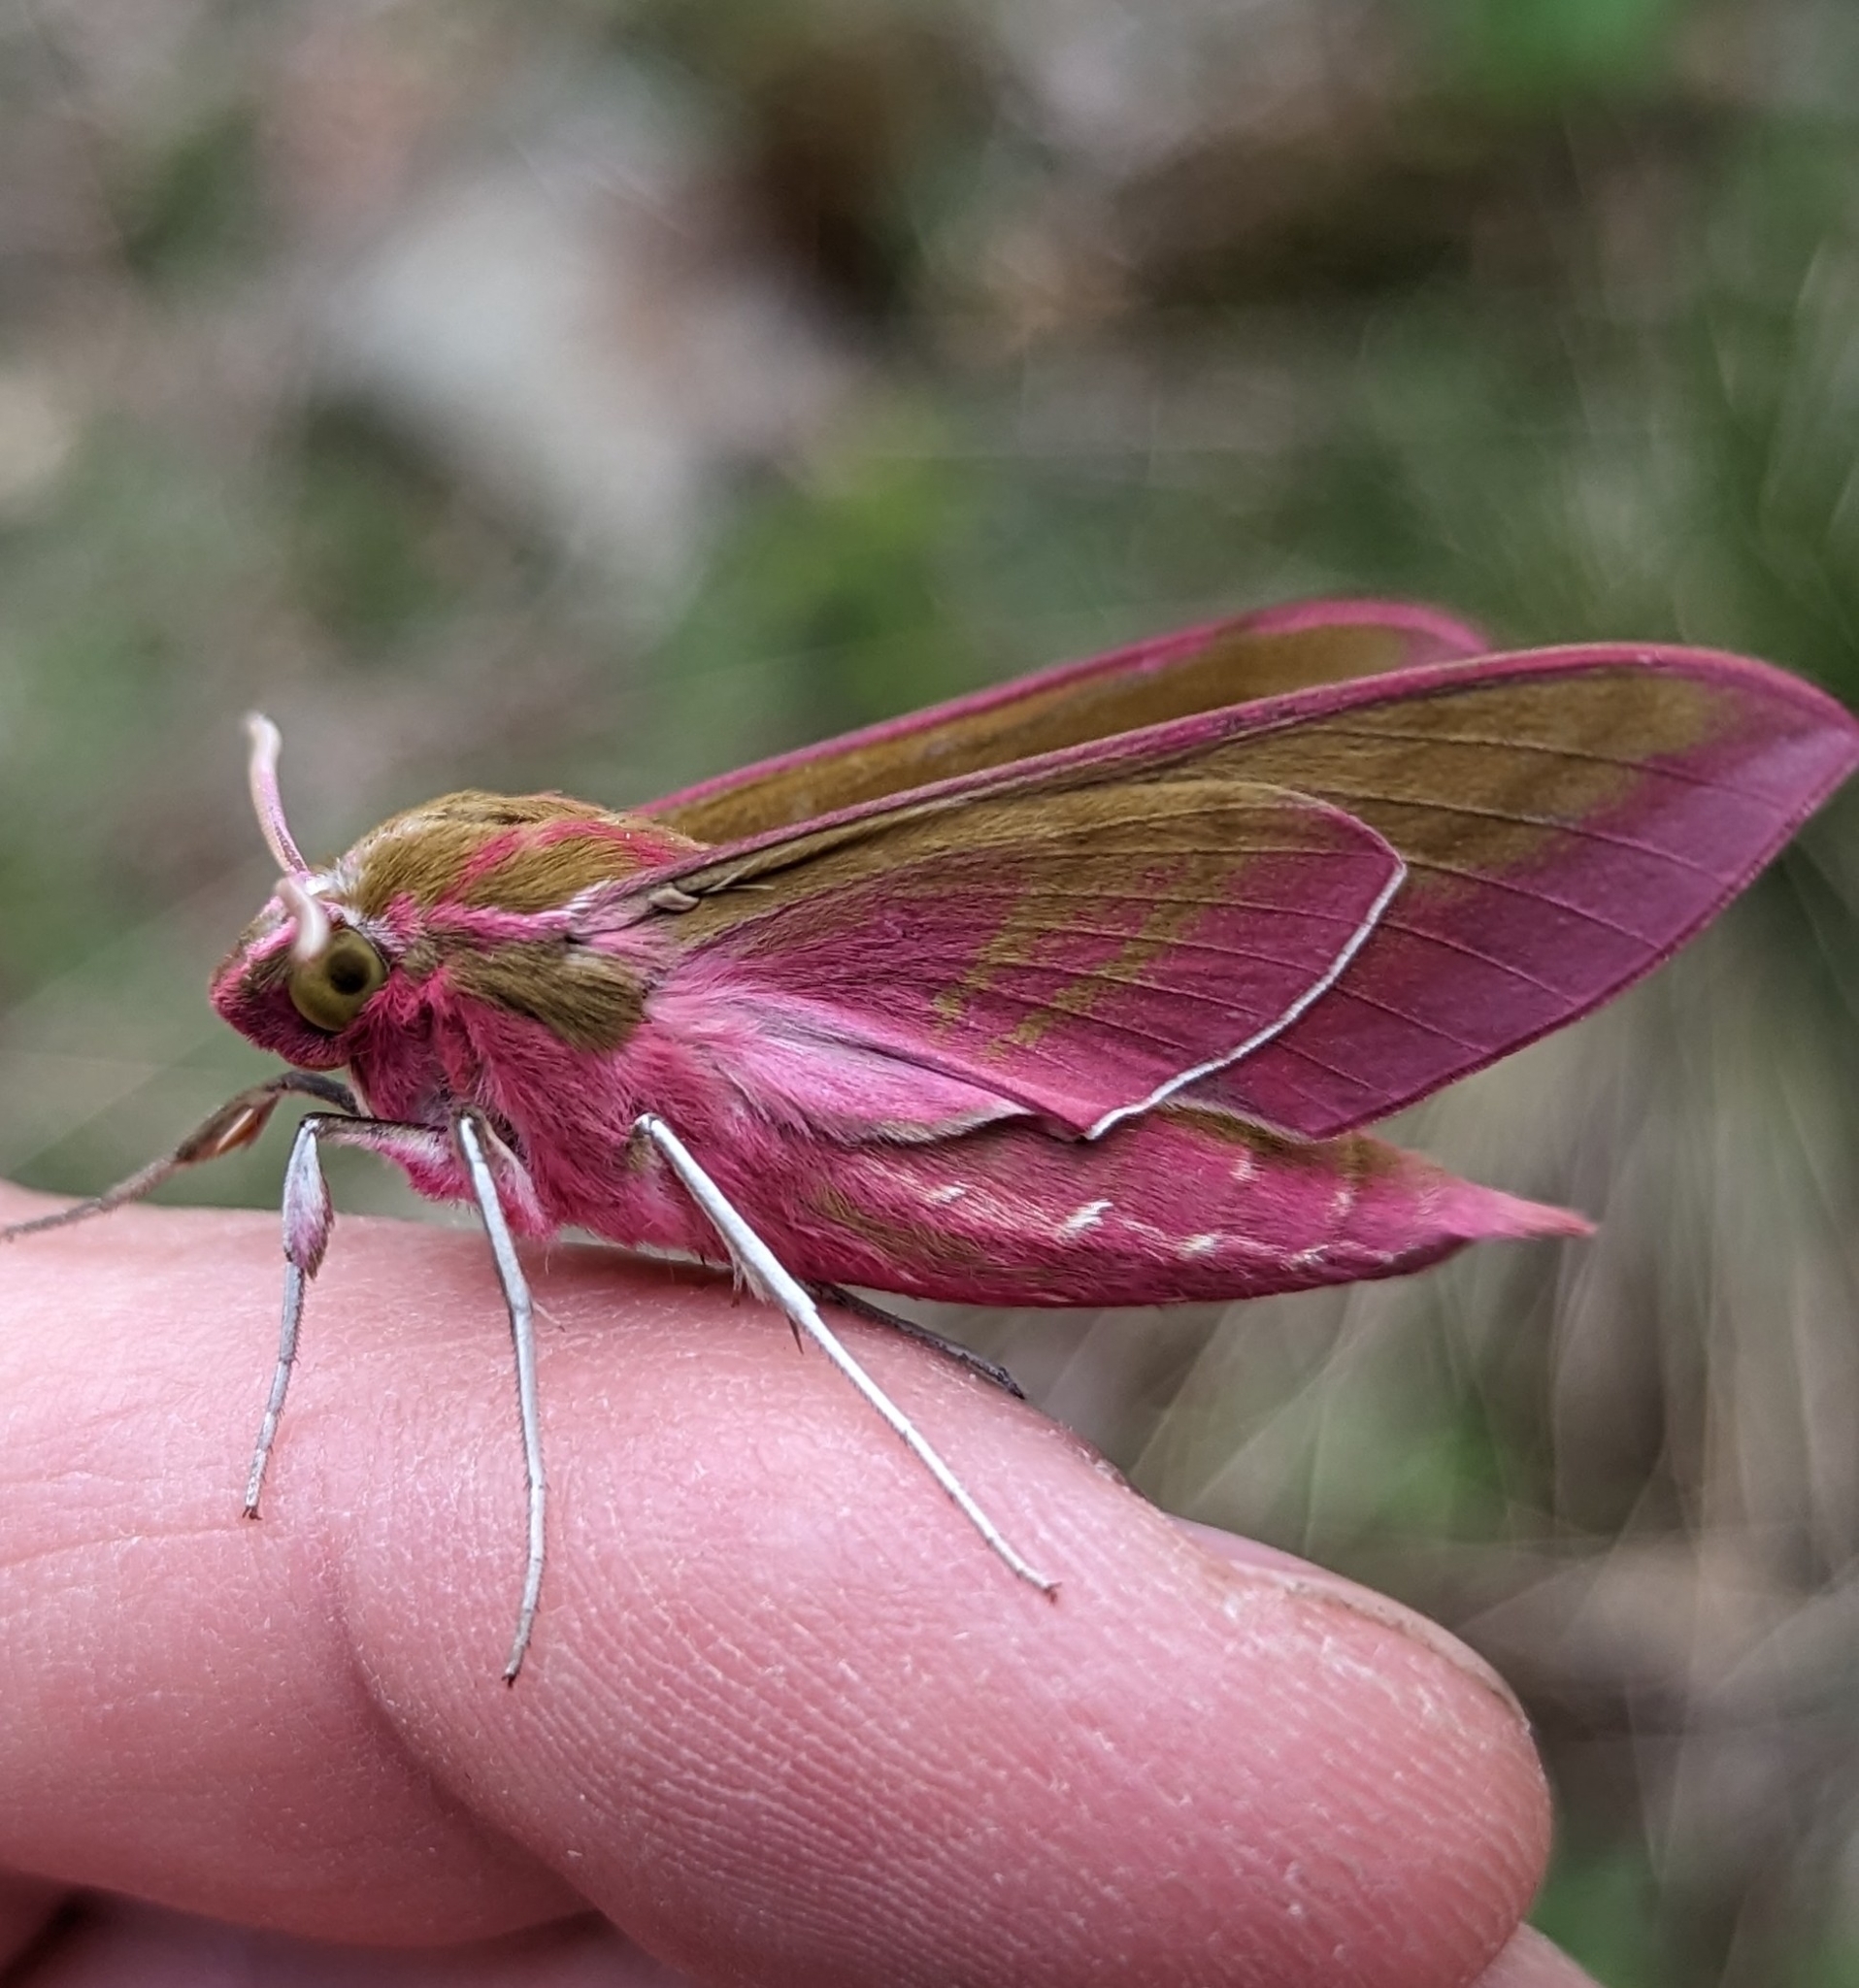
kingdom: Animalia
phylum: Arthropoda
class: Insecta
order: Lepidoptera
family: Sphingidae
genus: Deilephila
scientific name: Deilephila elpenor
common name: Elephant hawk-moth
